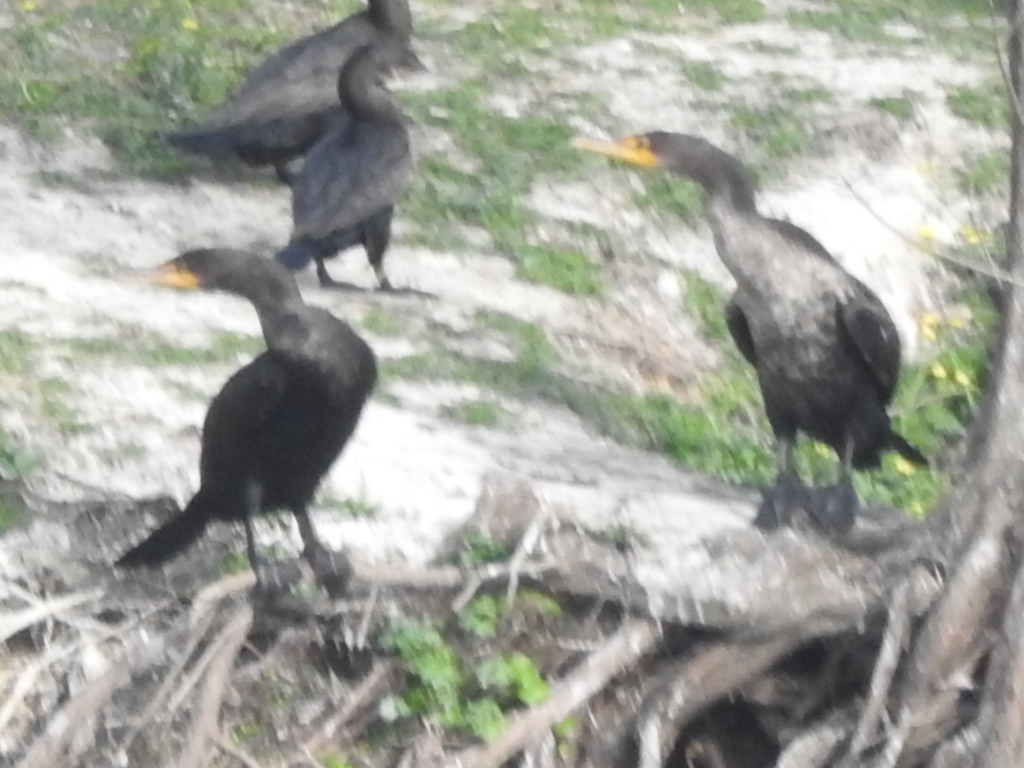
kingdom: Animalia
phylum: Chordata
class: Aves
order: Suliformes
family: Phalacrocoracidae
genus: Phalacrocorax
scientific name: Phalacrocorax auritus
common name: Double-crested cormorant
